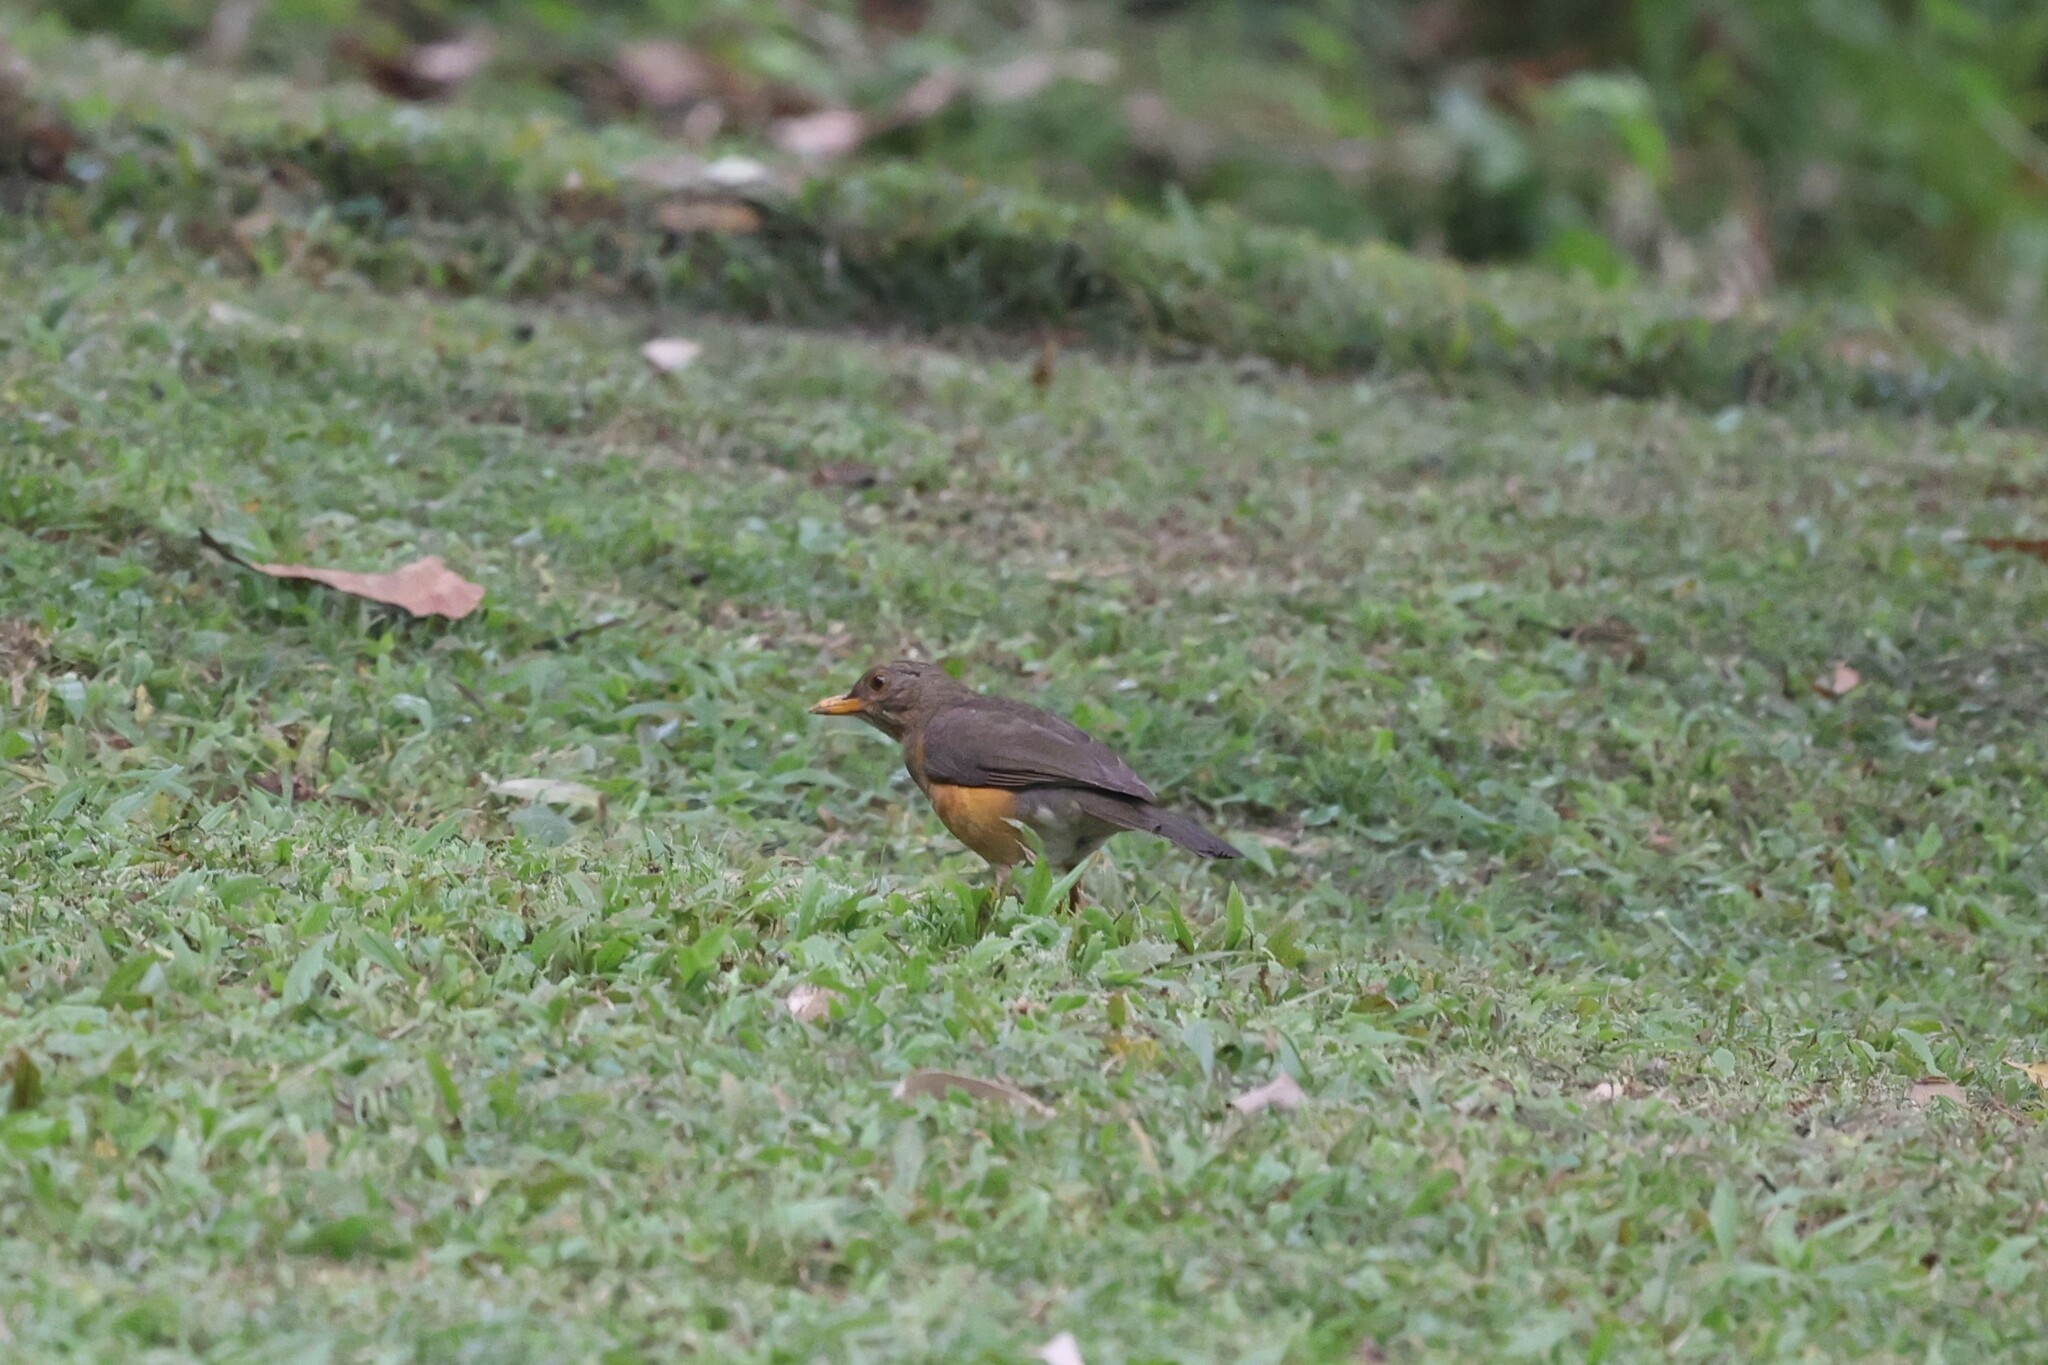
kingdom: Animalia
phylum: Chordata
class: Aves
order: Passeriformes
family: Turdidae
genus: Turdus
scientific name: Turdus pelios
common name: African thrush
